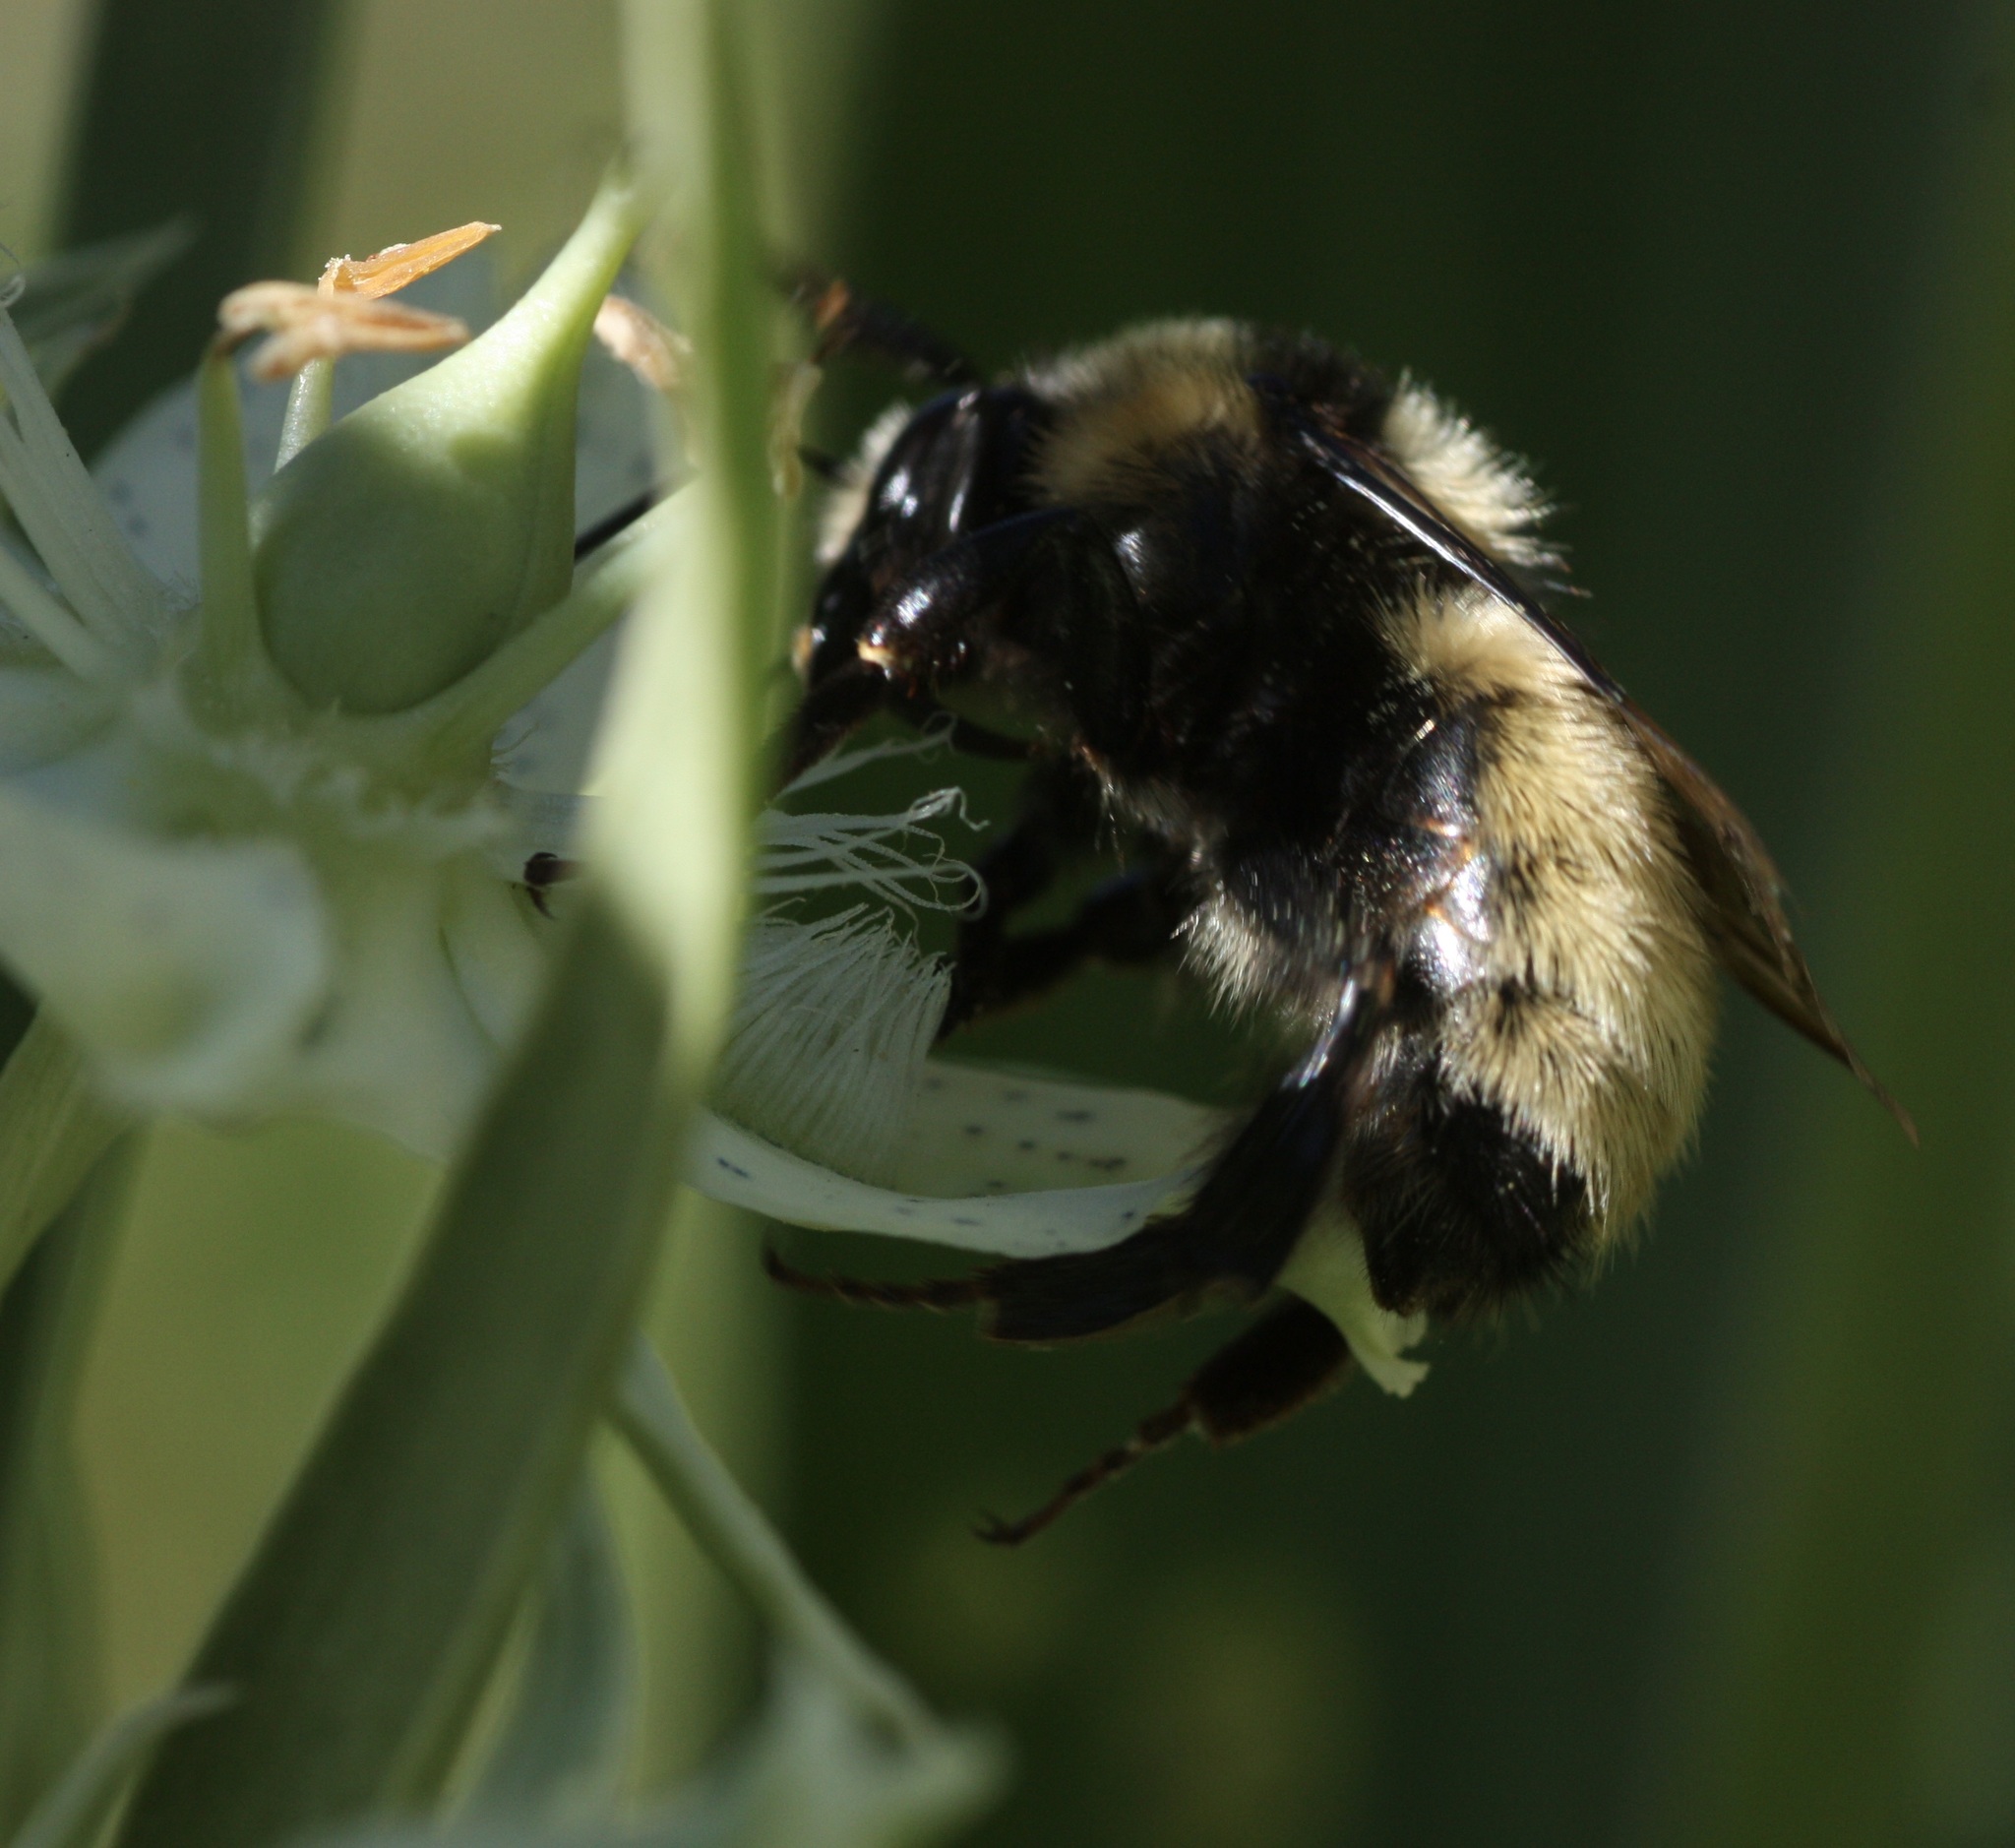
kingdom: Animalia
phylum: Arthropoda
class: Insecta
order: Hymenoptera
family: Apidae
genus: Bombus
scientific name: Bombus
